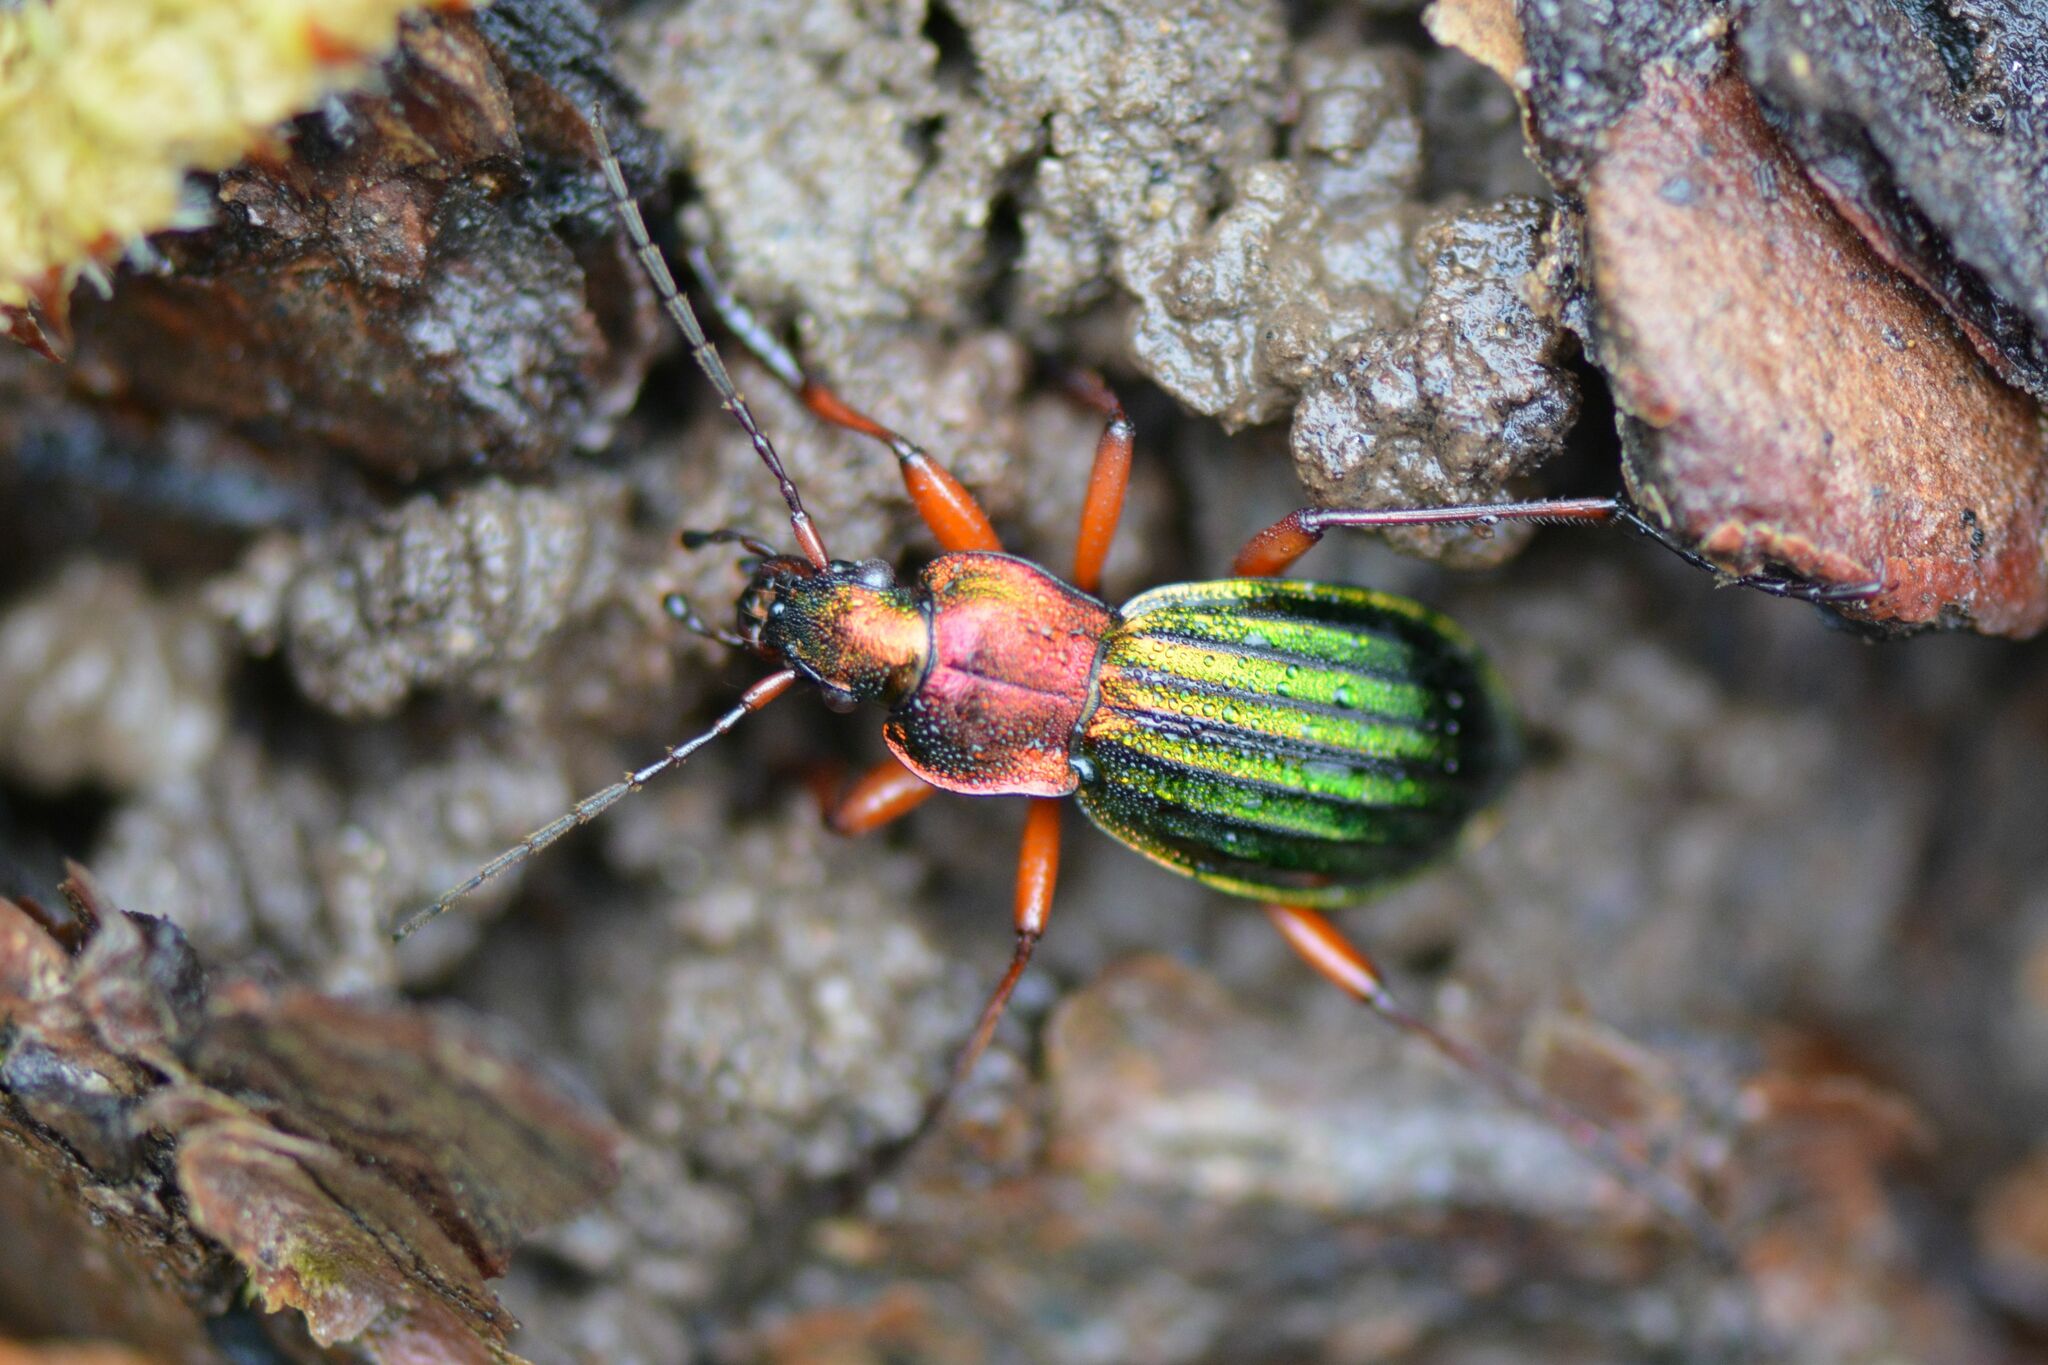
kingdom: Animalia
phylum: Arthropoda
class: Insecta
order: Coleoptera
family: Carabidae
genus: Carabus
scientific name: Carabus auronitens
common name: Carabus auronitens
